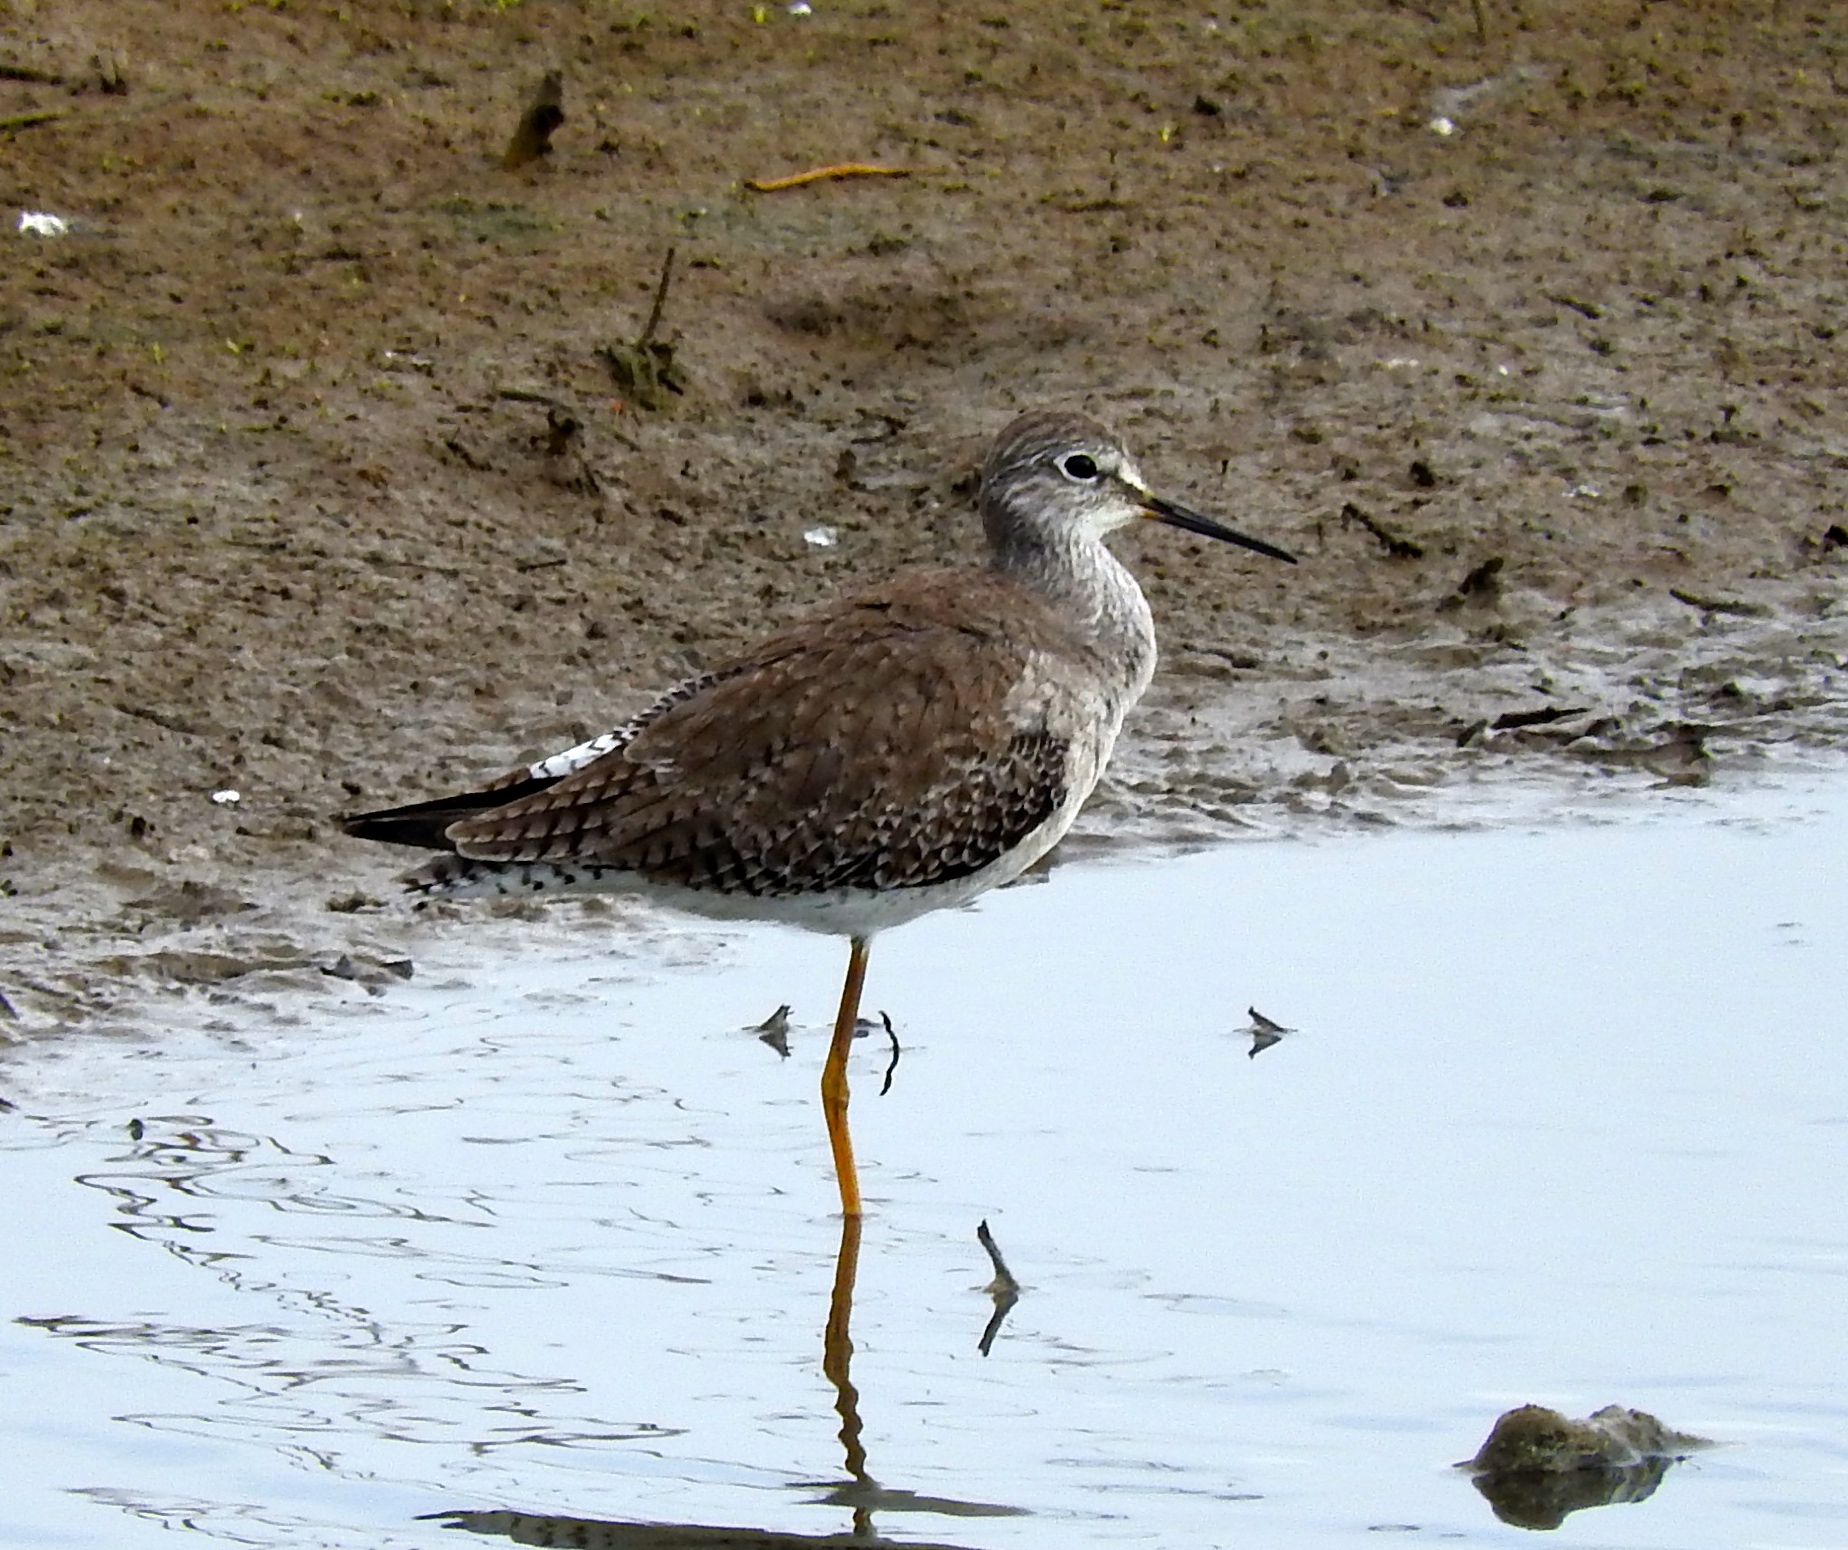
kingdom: Animalia
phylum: Chordata
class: Aves
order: Charadriiformes
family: Scolopacidae
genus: Tringa
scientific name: Tringa flavipes
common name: Lesser yellowlegs
